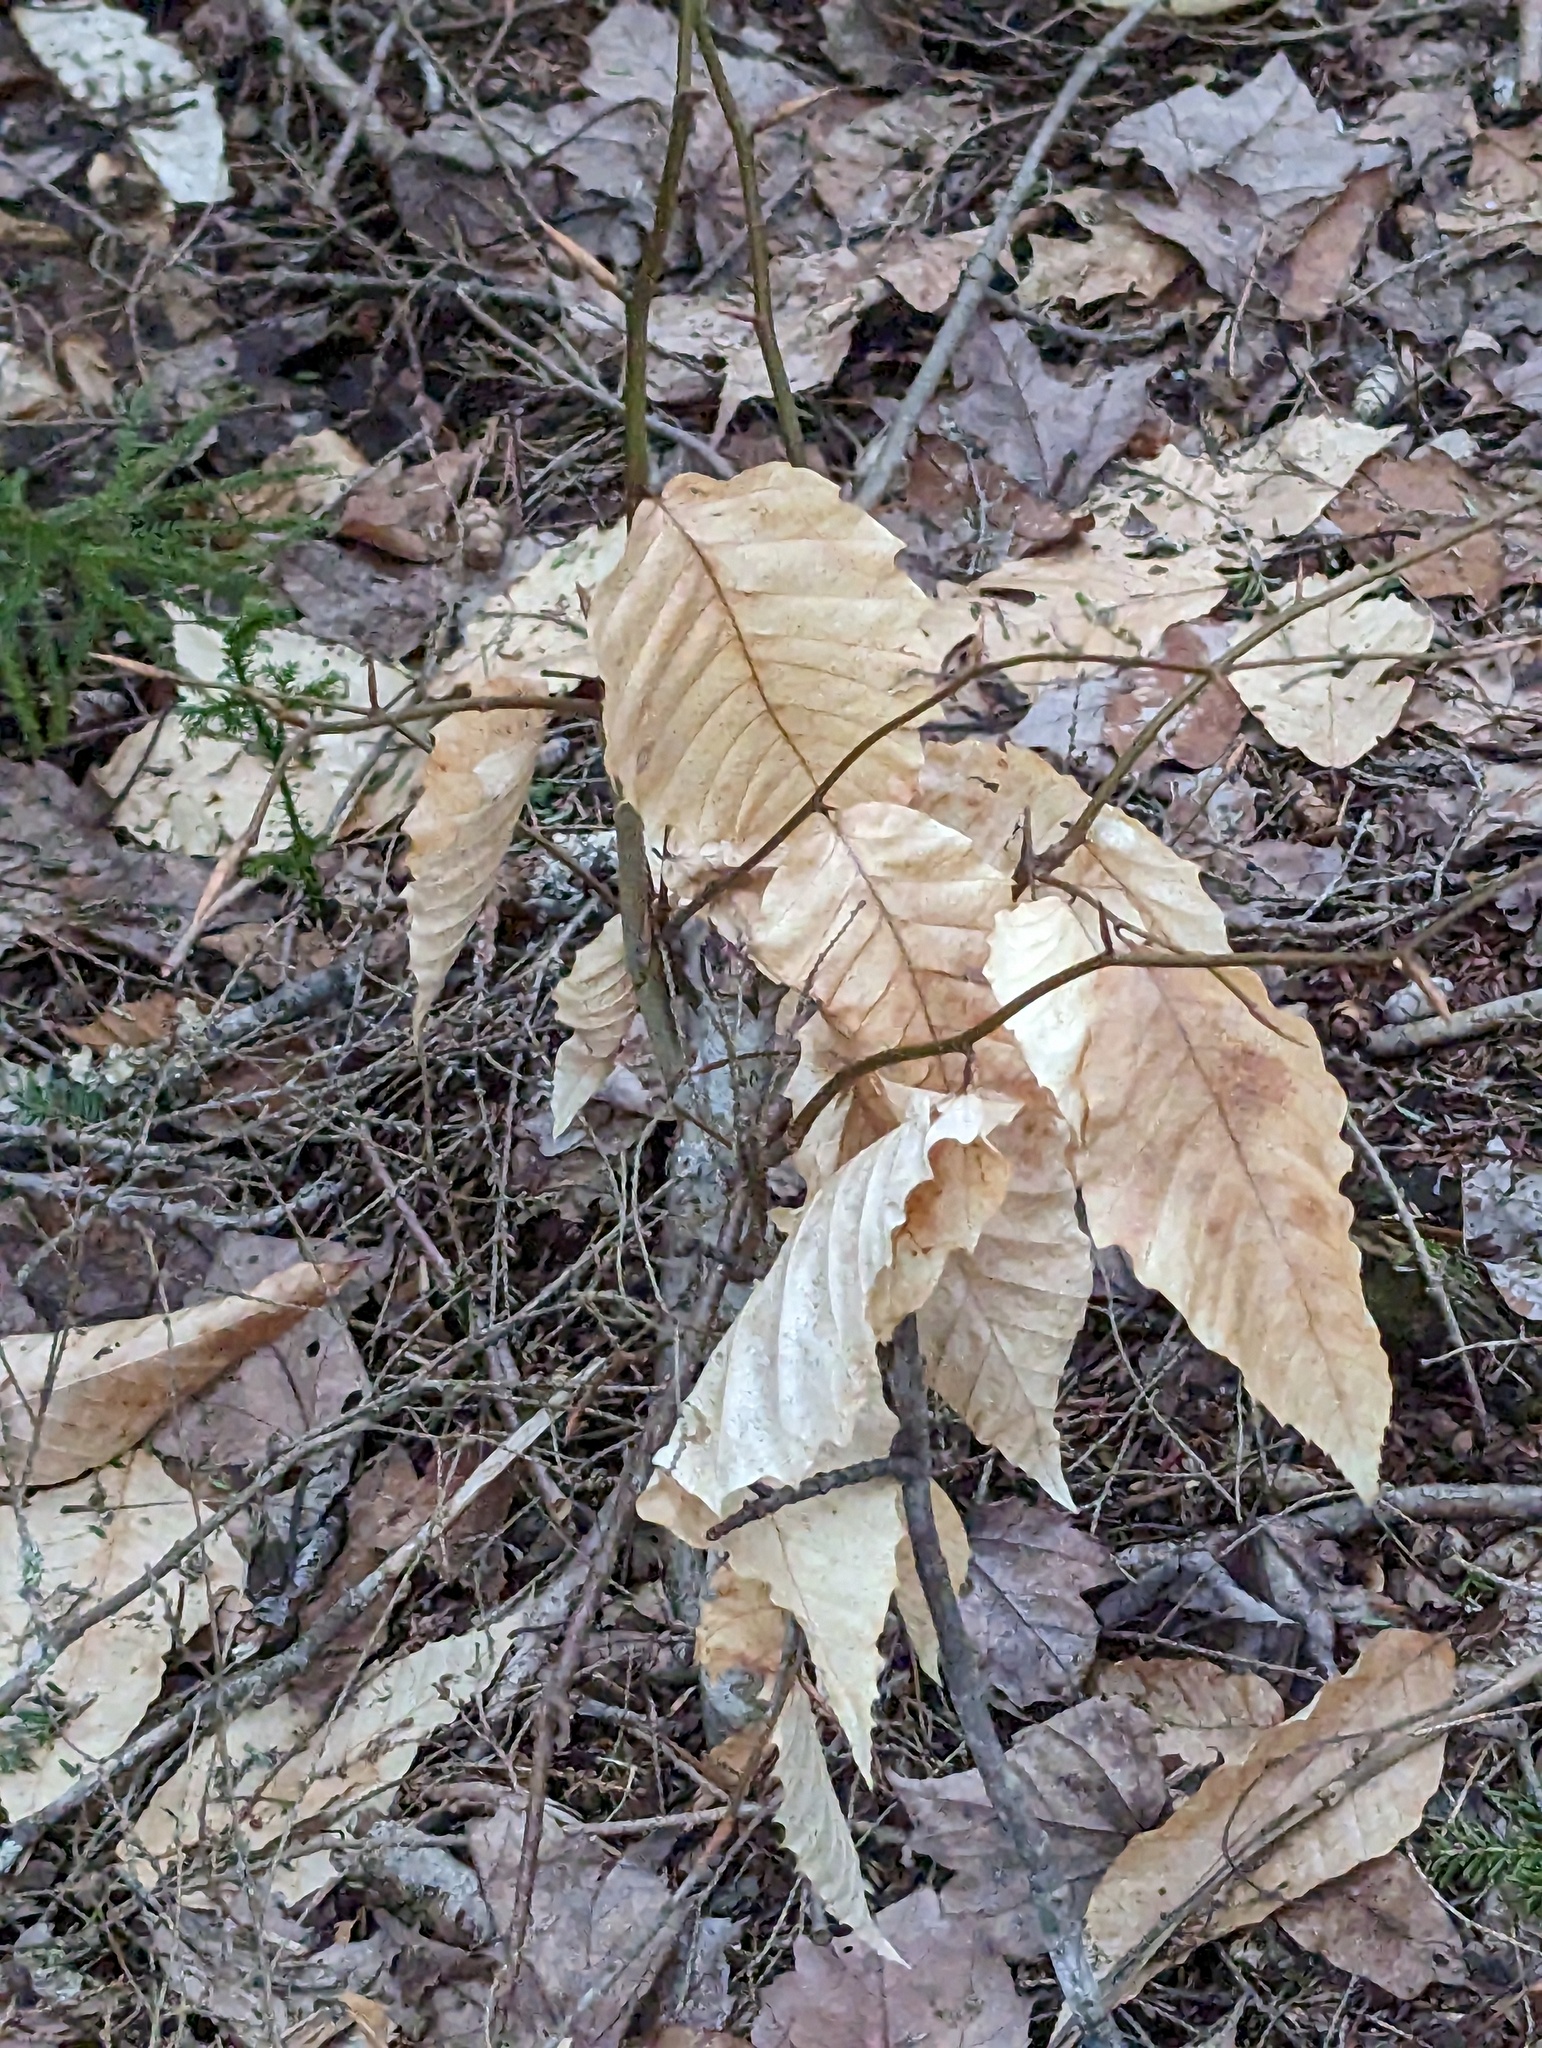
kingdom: Plantae
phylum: Tracheophyta
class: Magnoliopsida
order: Fagales
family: Fagaceae
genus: Fagus
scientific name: Fagus grandifolia
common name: American beech
